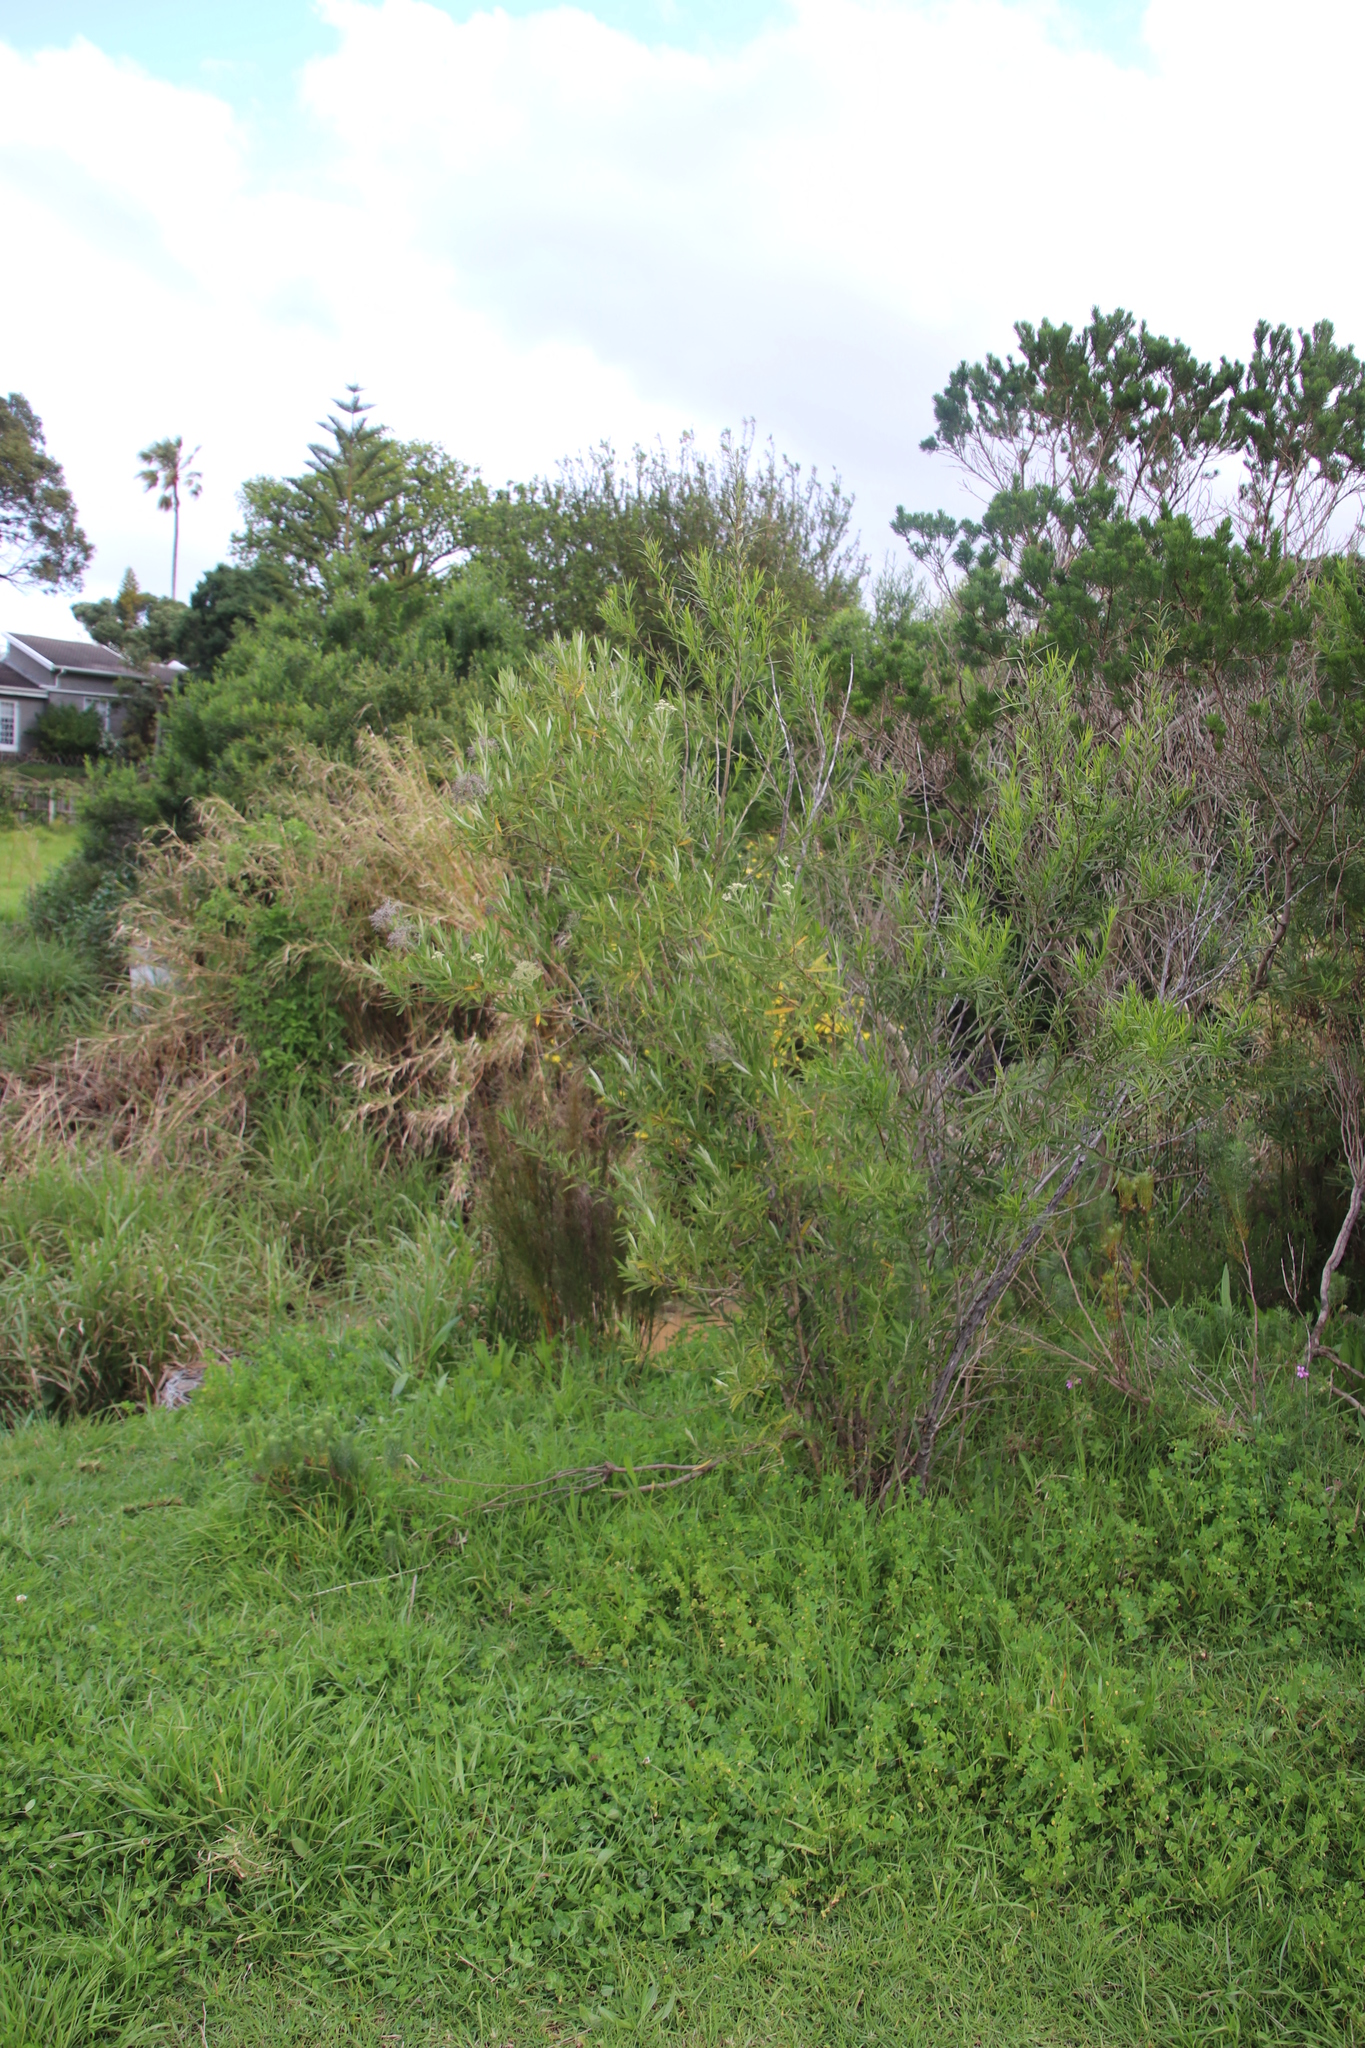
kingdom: Plantae
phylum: Tracheophyta
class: Magnoliopsida
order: Lamiales
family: Scrophulariaceae
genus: Buddleja
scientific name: Buddleja saligna
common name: False olive
